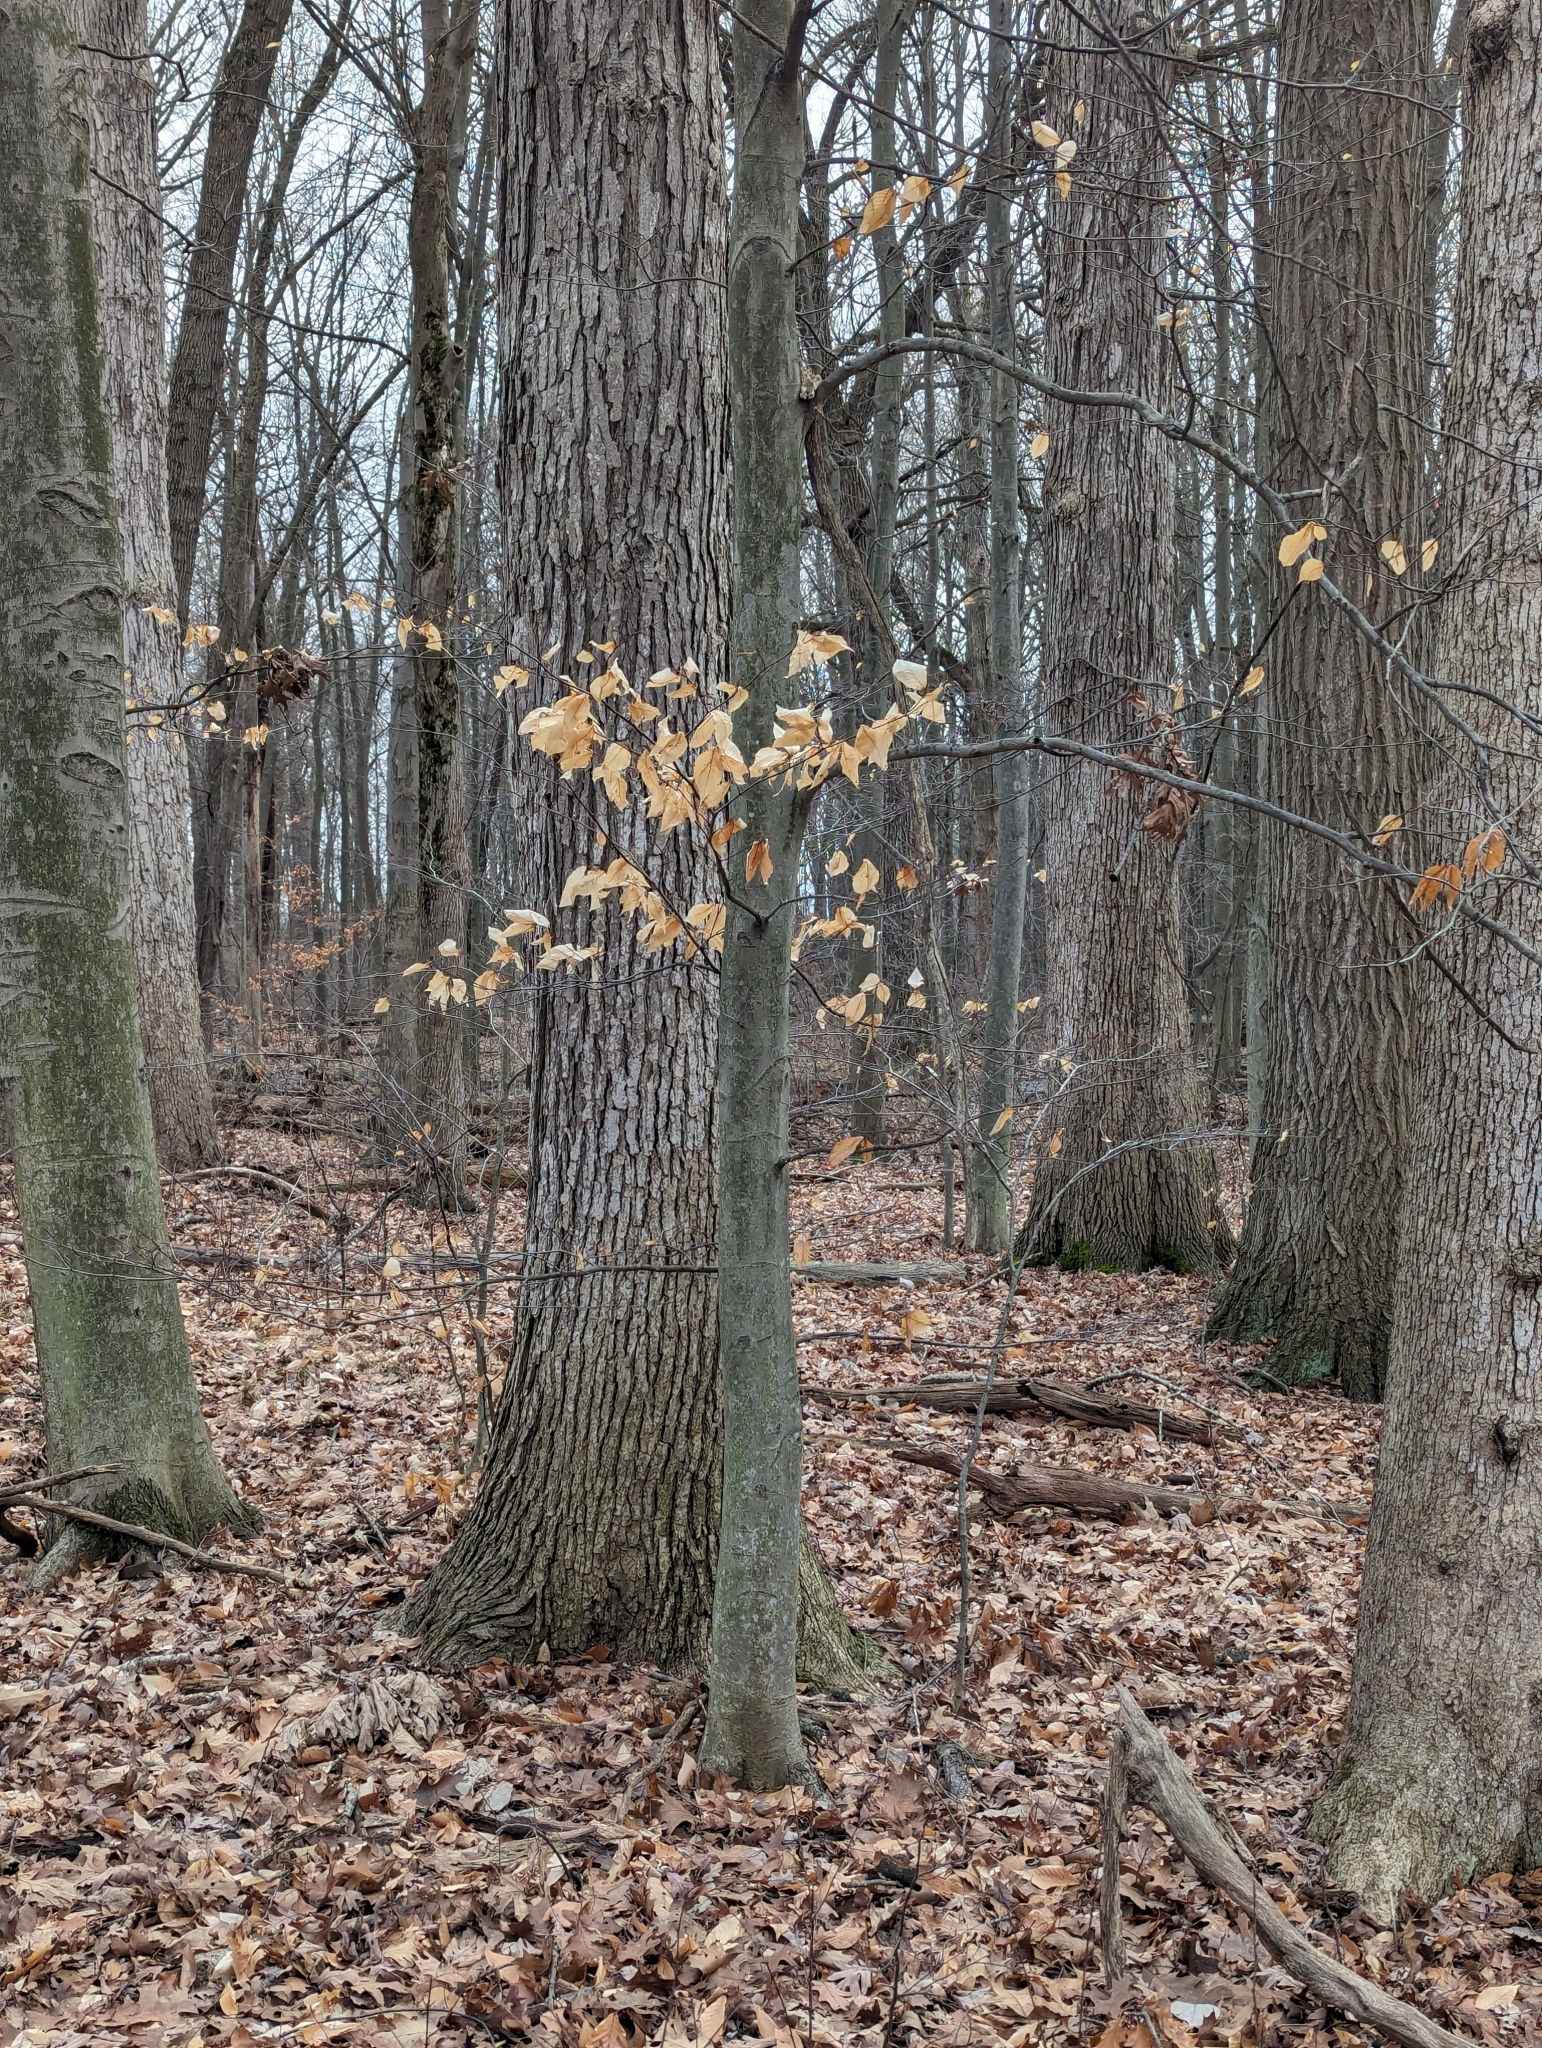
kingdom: Plantae
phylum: Tracheophyta
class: Magnoliopsida
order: Fagales
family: Fagaceae
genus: Fagus
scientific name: Fagus grandifolia
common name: American beech
